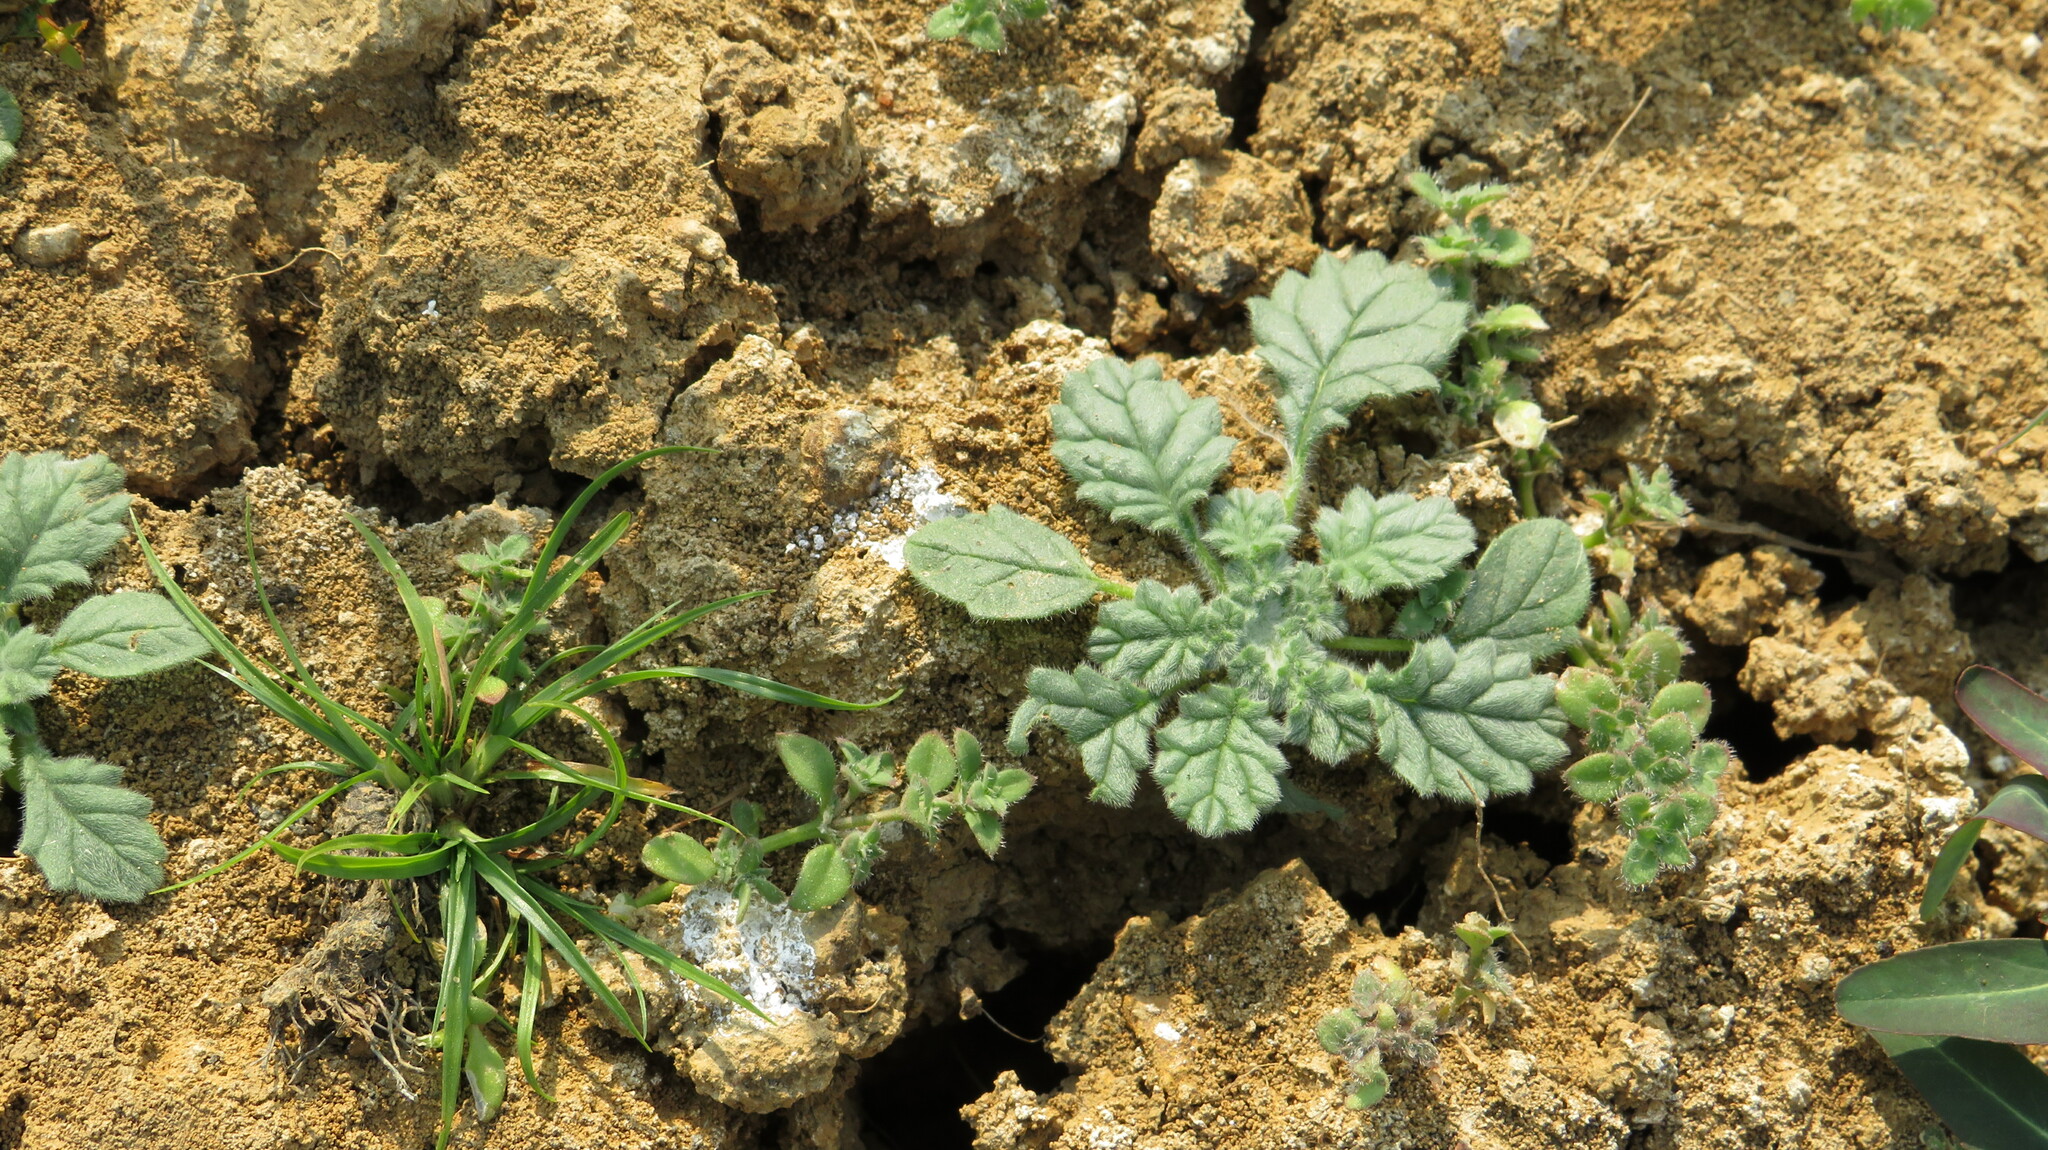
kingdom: Plantae
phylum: Tracheophyta
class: Magnoliopsida
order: Boraginales
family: Coldeniaceae
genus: Coldenia
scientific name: Coldenia procumbens
